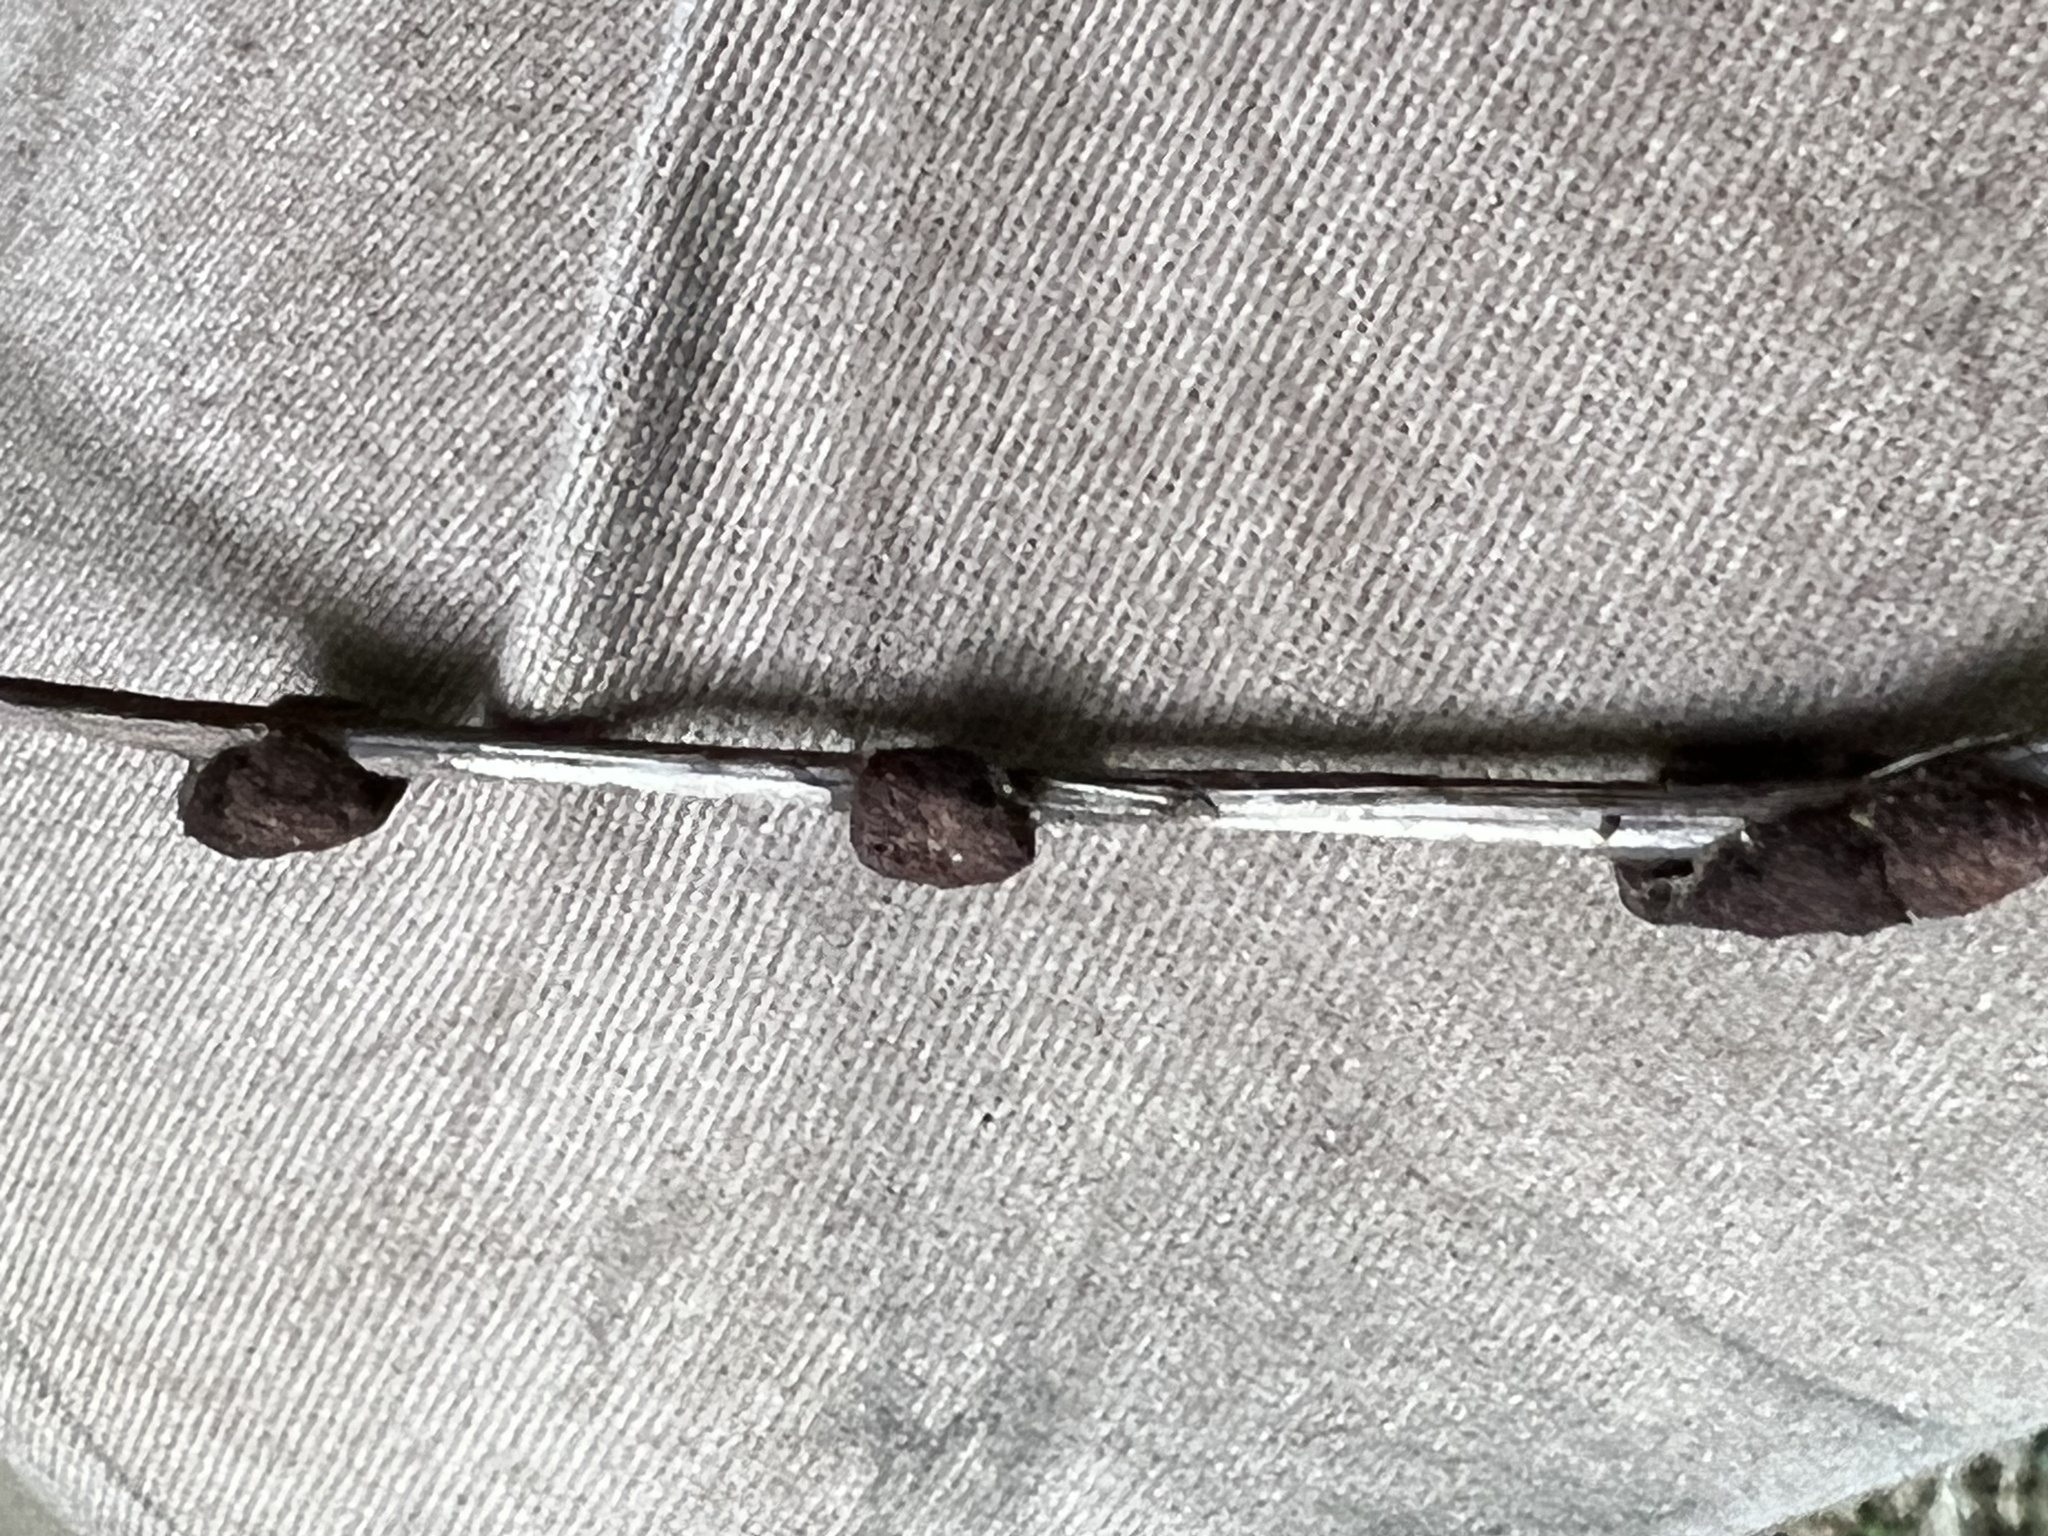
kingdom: Animalia
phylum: Arthropoda
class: Arachnida
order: Trombidiformes
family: Eriophyidae
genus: Aceria
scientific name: Aceria
